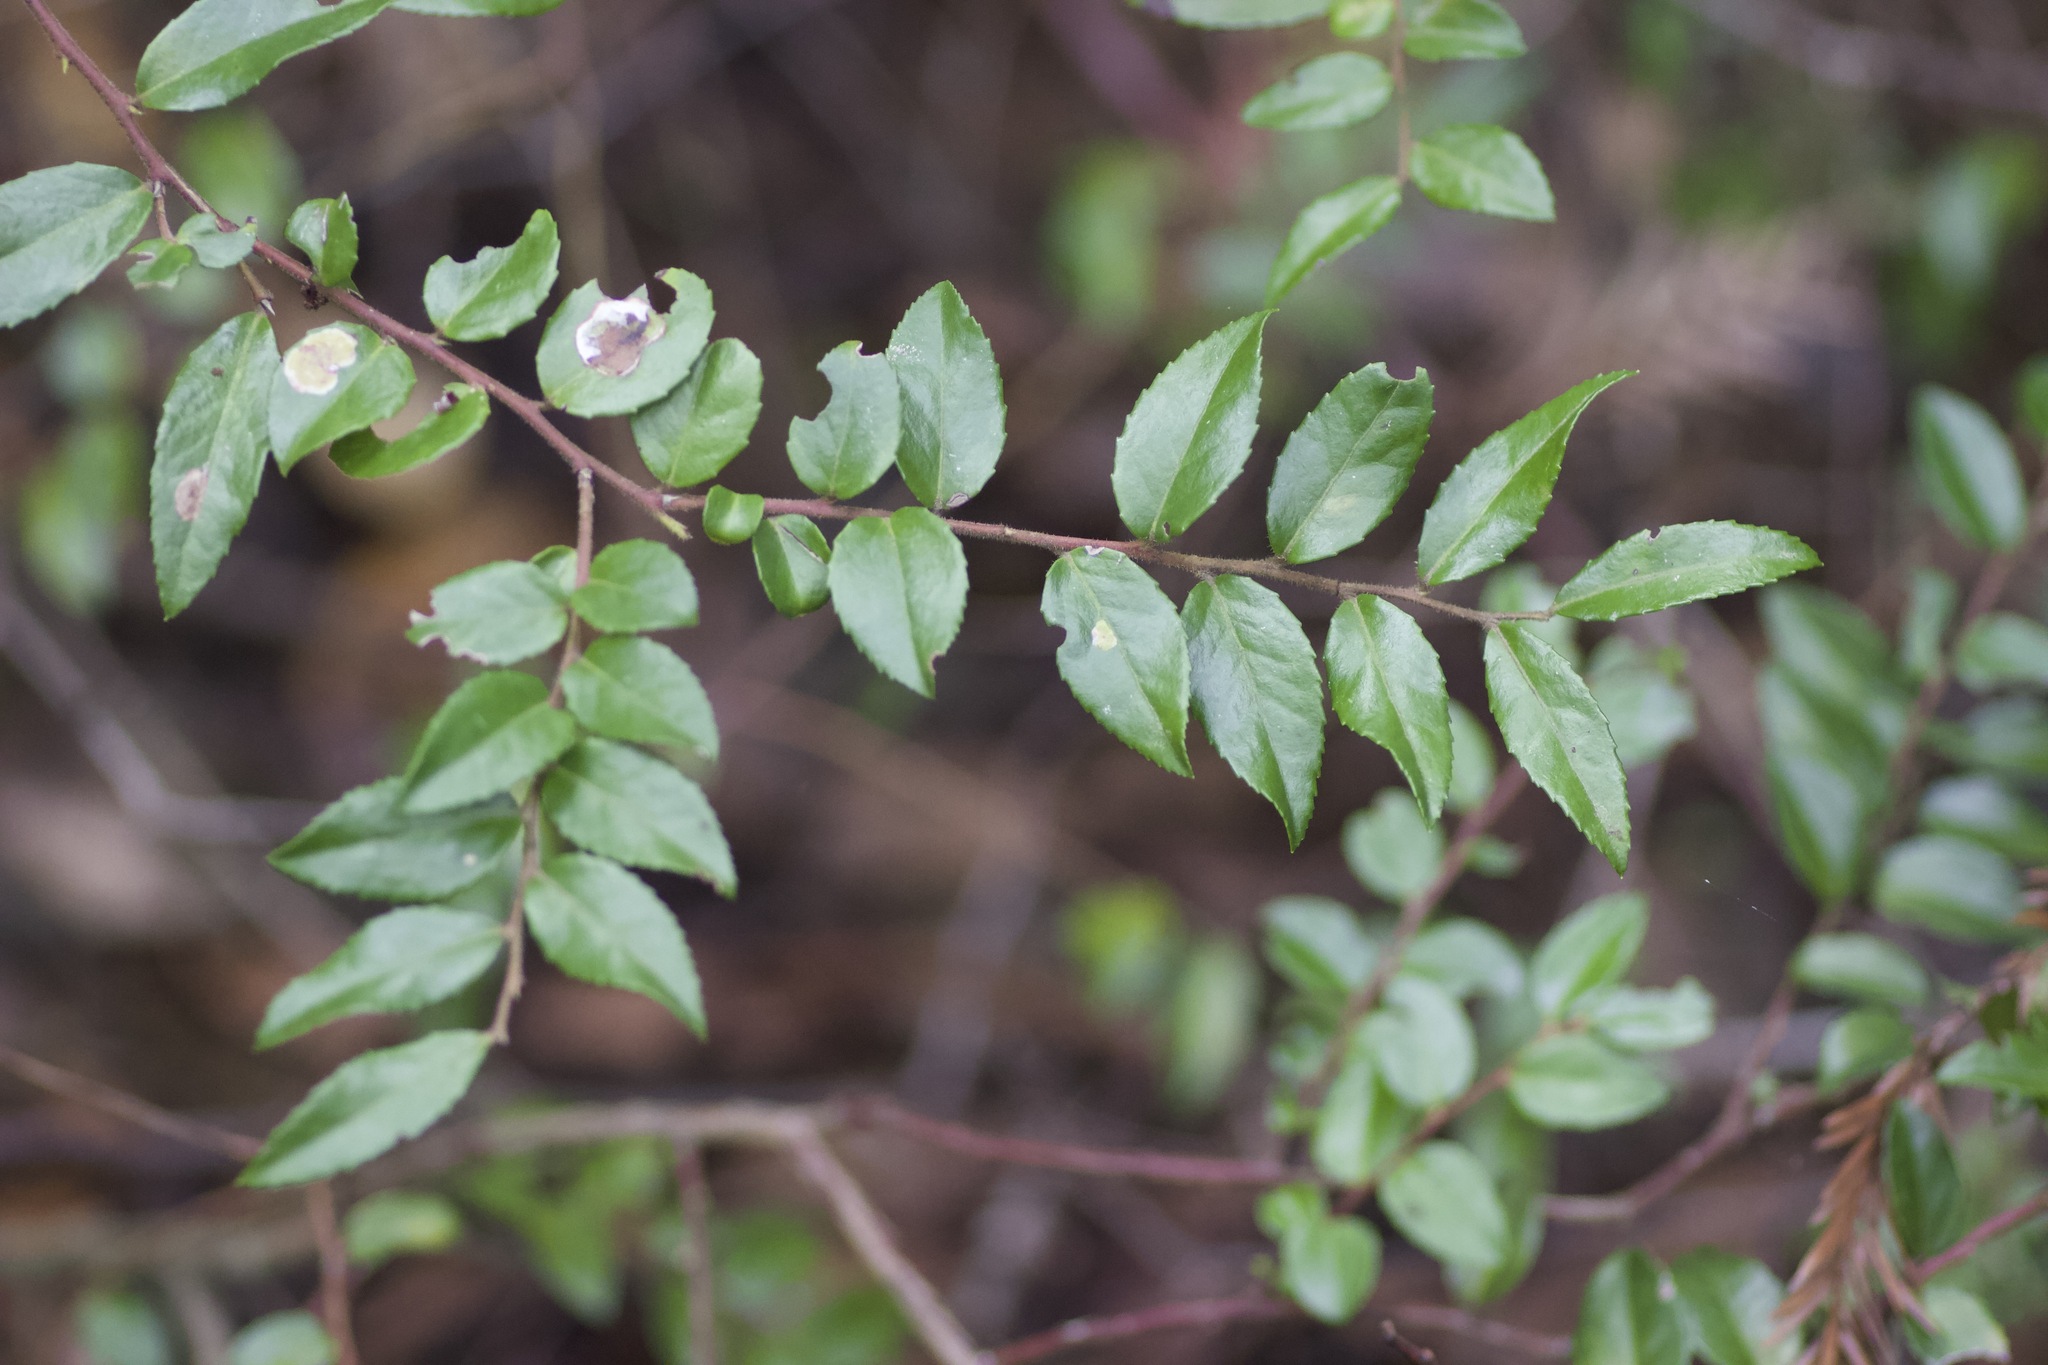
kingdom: Plantae
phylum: Tracheophyta
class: Magnoliopsida
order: Ericales
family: Ericaceae
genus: Vaccinium
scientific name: Vaccinium ovatum
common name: California-huckleberry
